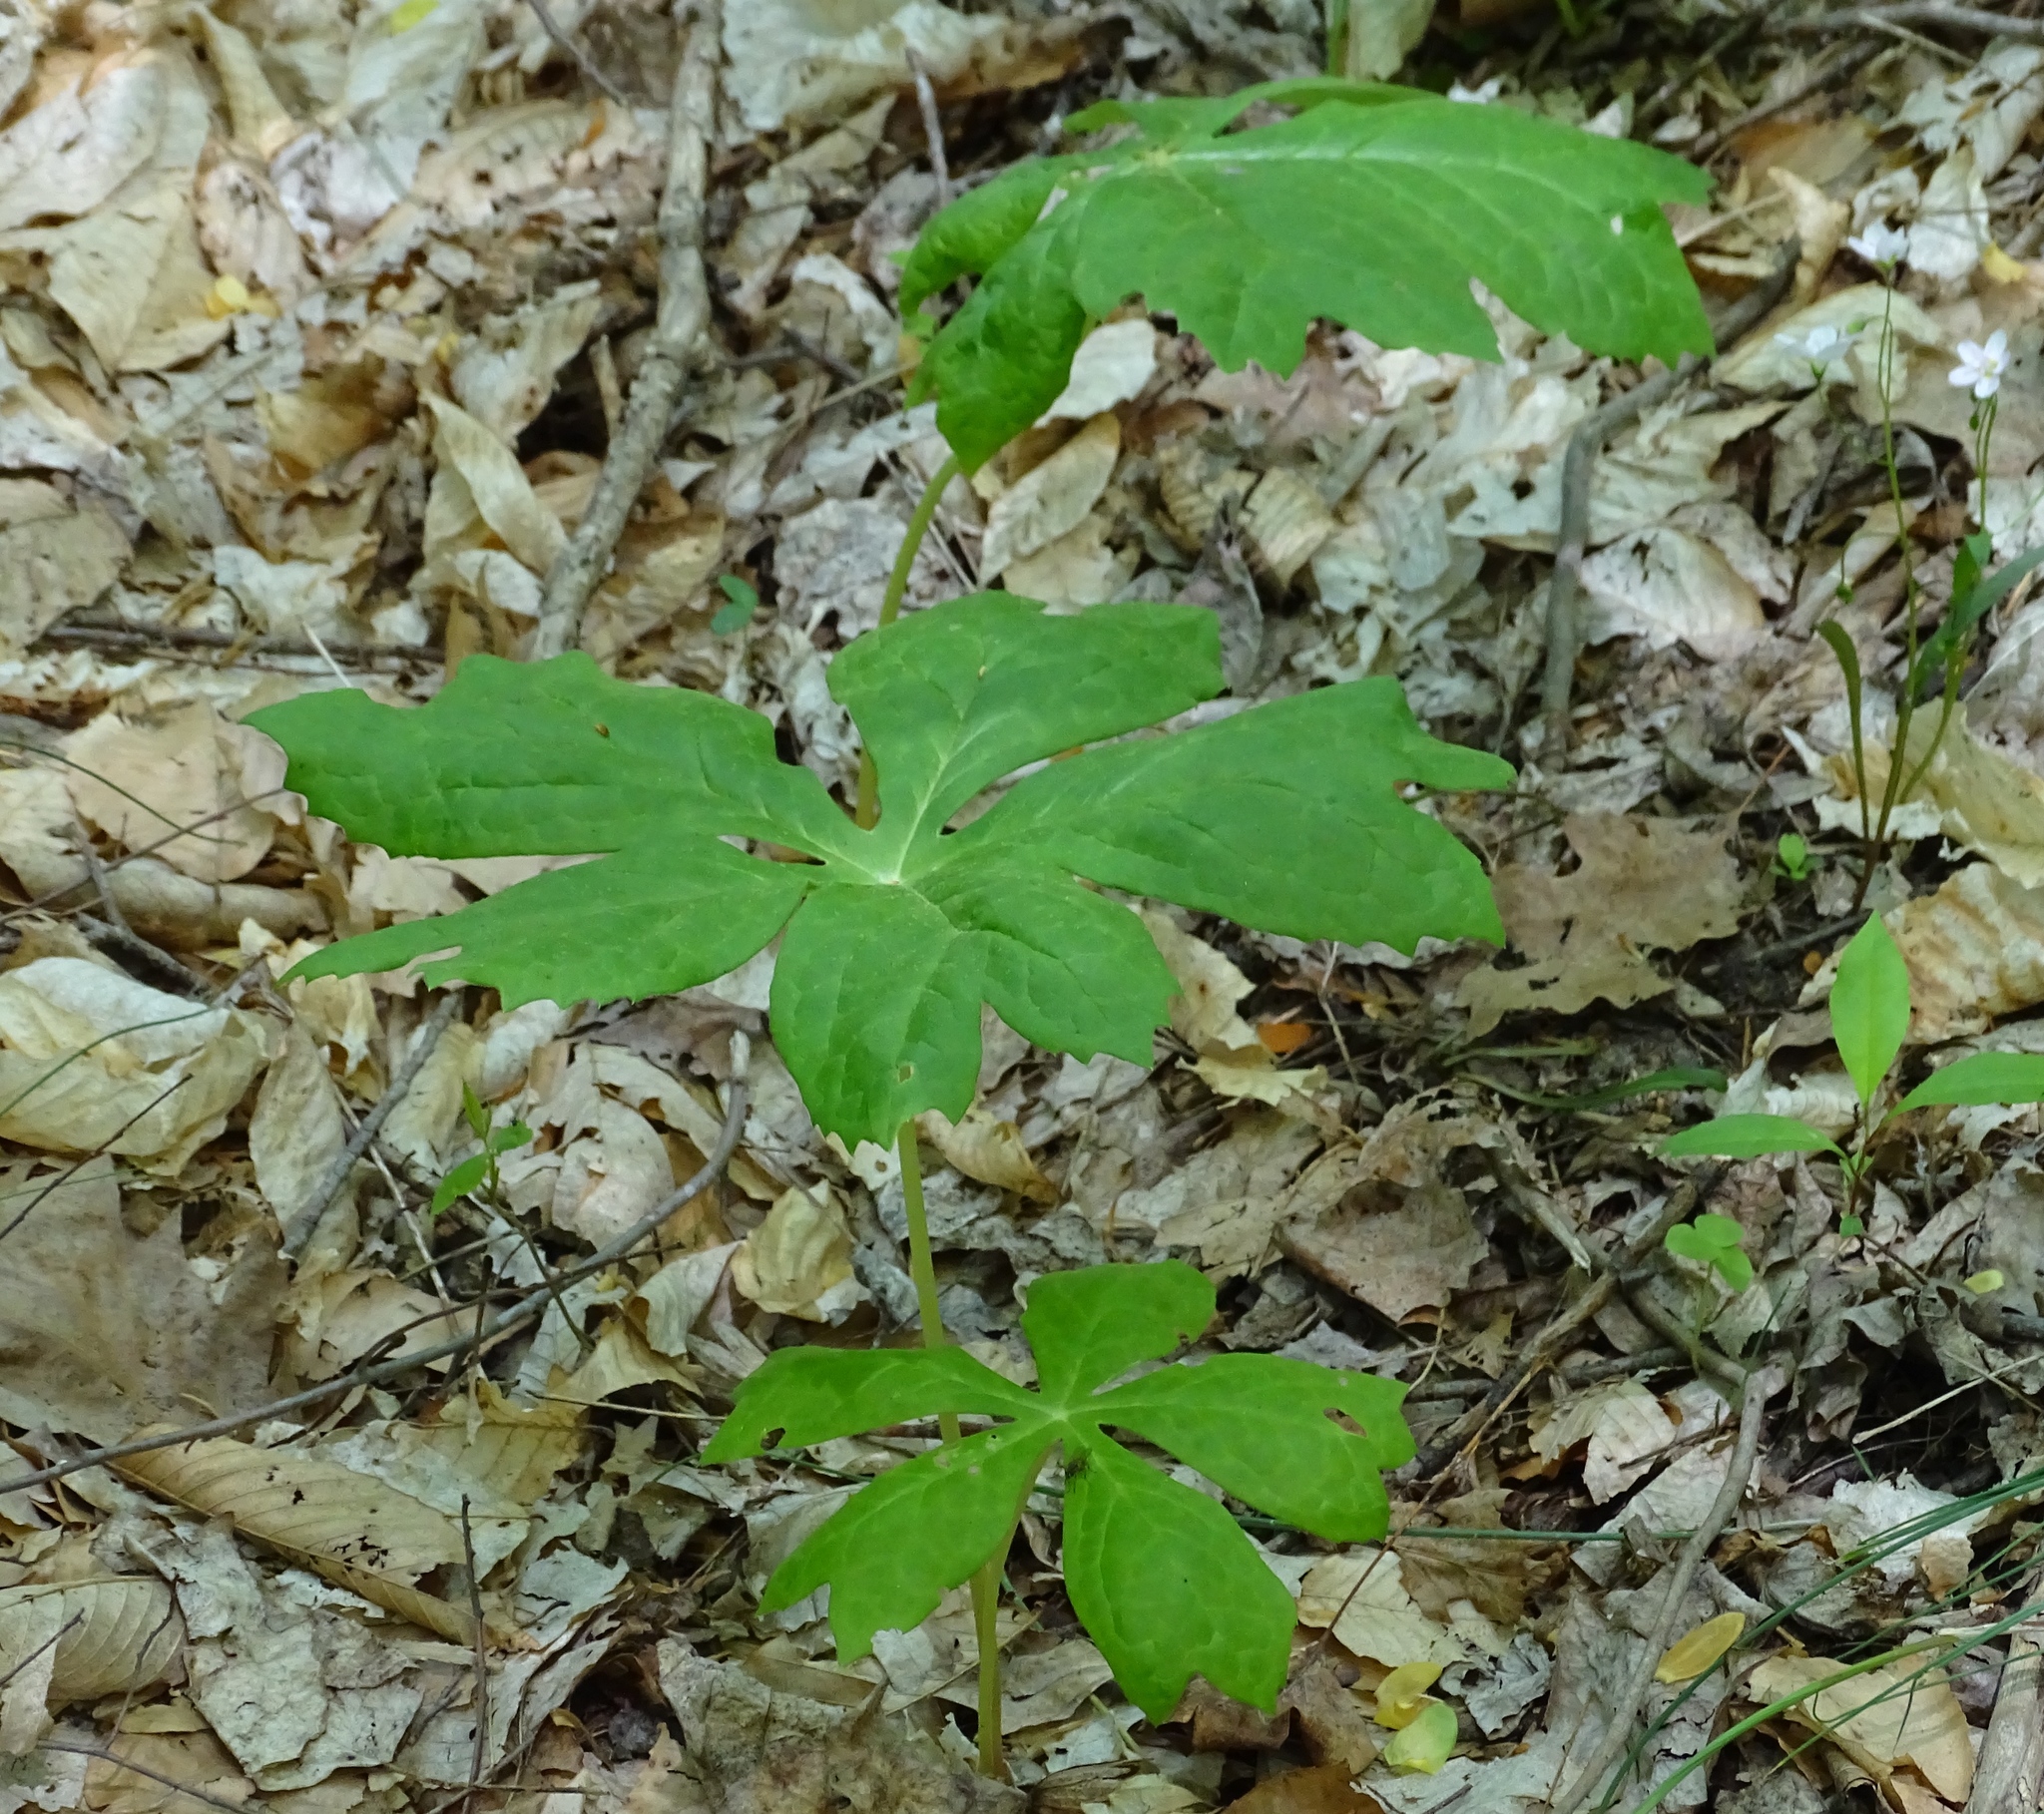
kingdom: Plantae
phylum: Tracheophyta
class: Magnoliopsida
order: Ranunculales
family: Berberidaceae
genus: Podophyllum
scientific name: Podophyllum peltatum
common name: Wild mandrake
